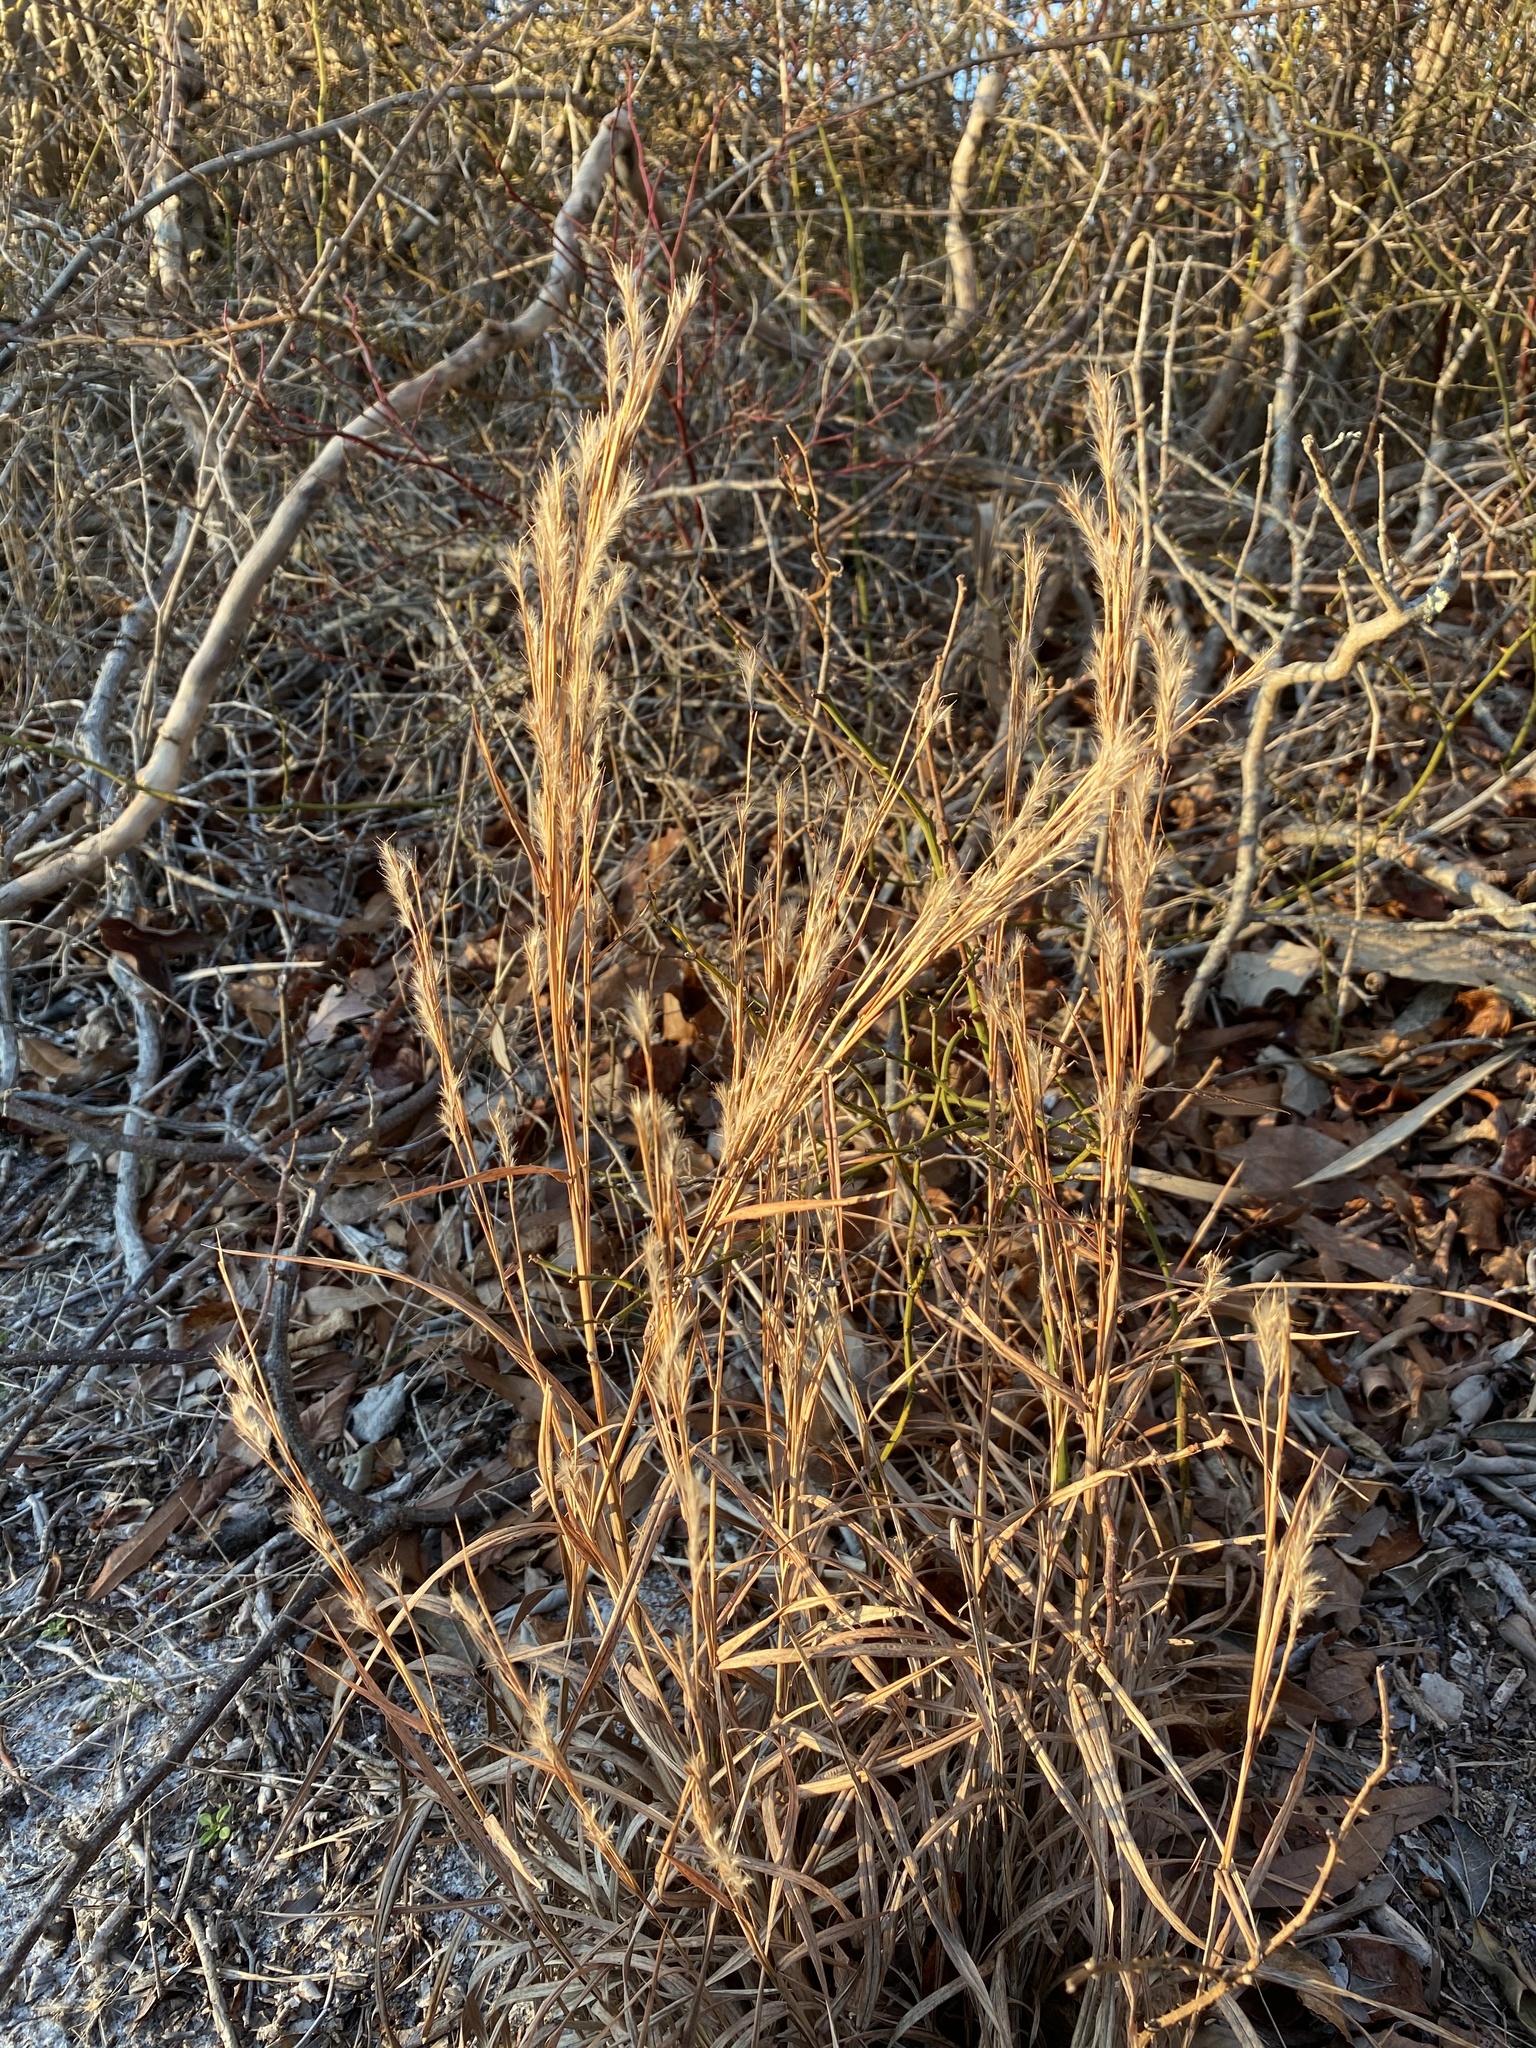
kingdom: Plantae
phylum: Tracheophyta
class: Liliopsida
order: Poales
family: Poaceae
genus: Schizachyrium
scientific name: Schizachyrium scoparium
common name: Little bluestem
